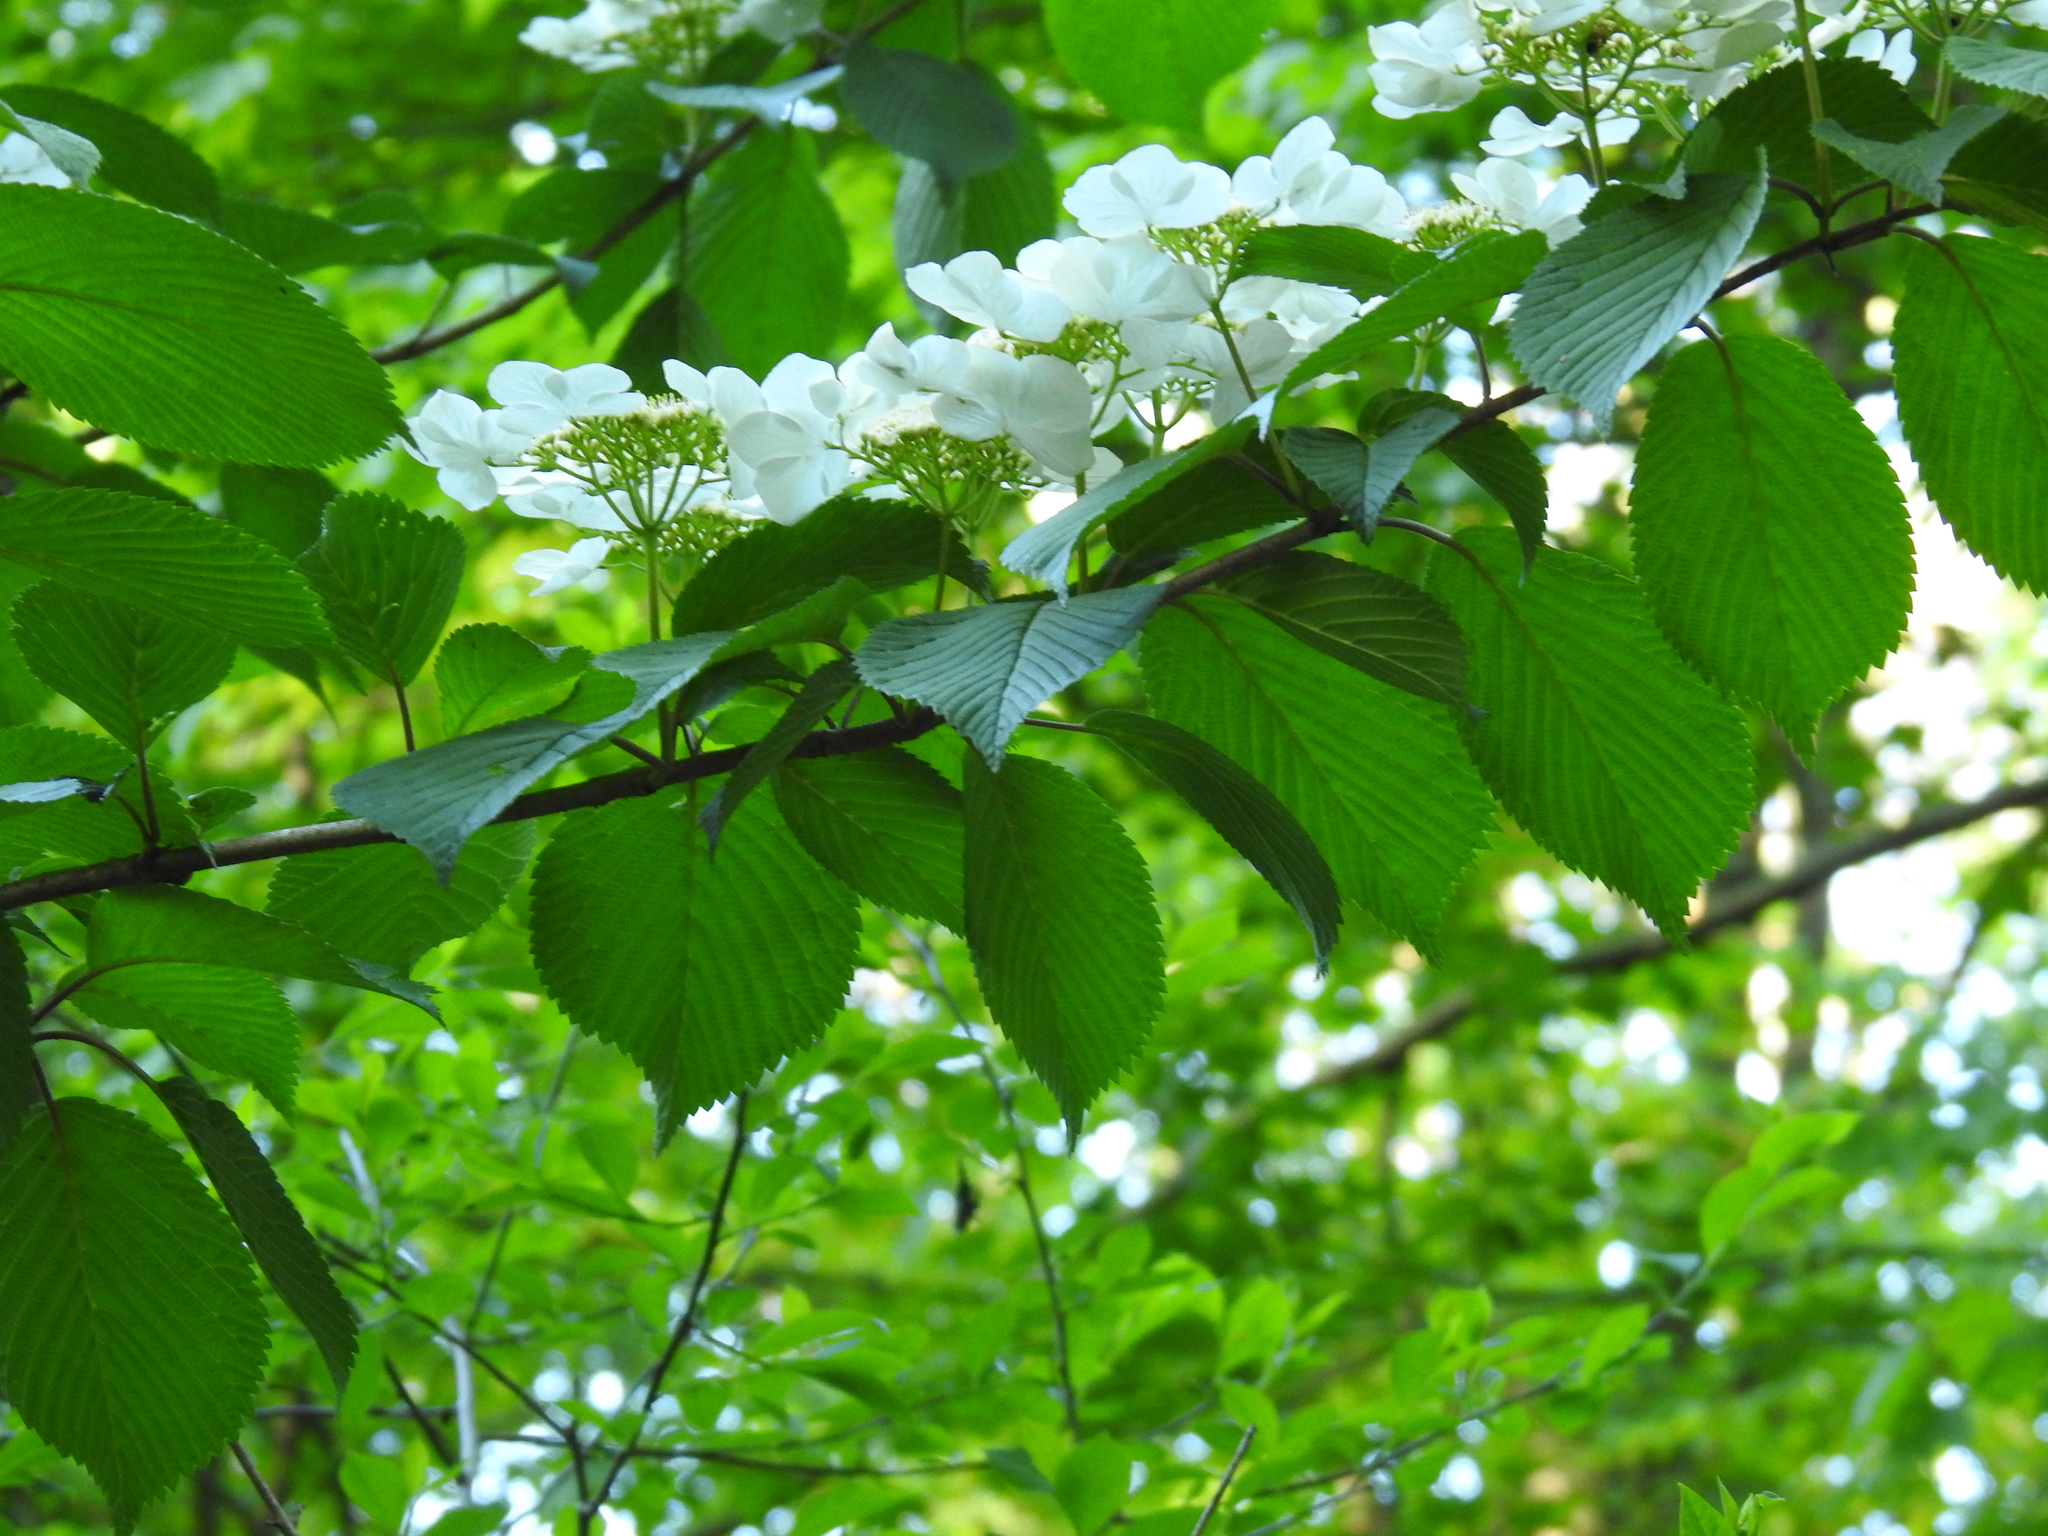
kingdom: Plantae
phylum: Tracheophyta
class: Magnoliopsida
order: Dipsacales
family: Viburnaceae
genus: Viburnum
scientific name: Viburnum plicatum
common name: Japanese snowball
